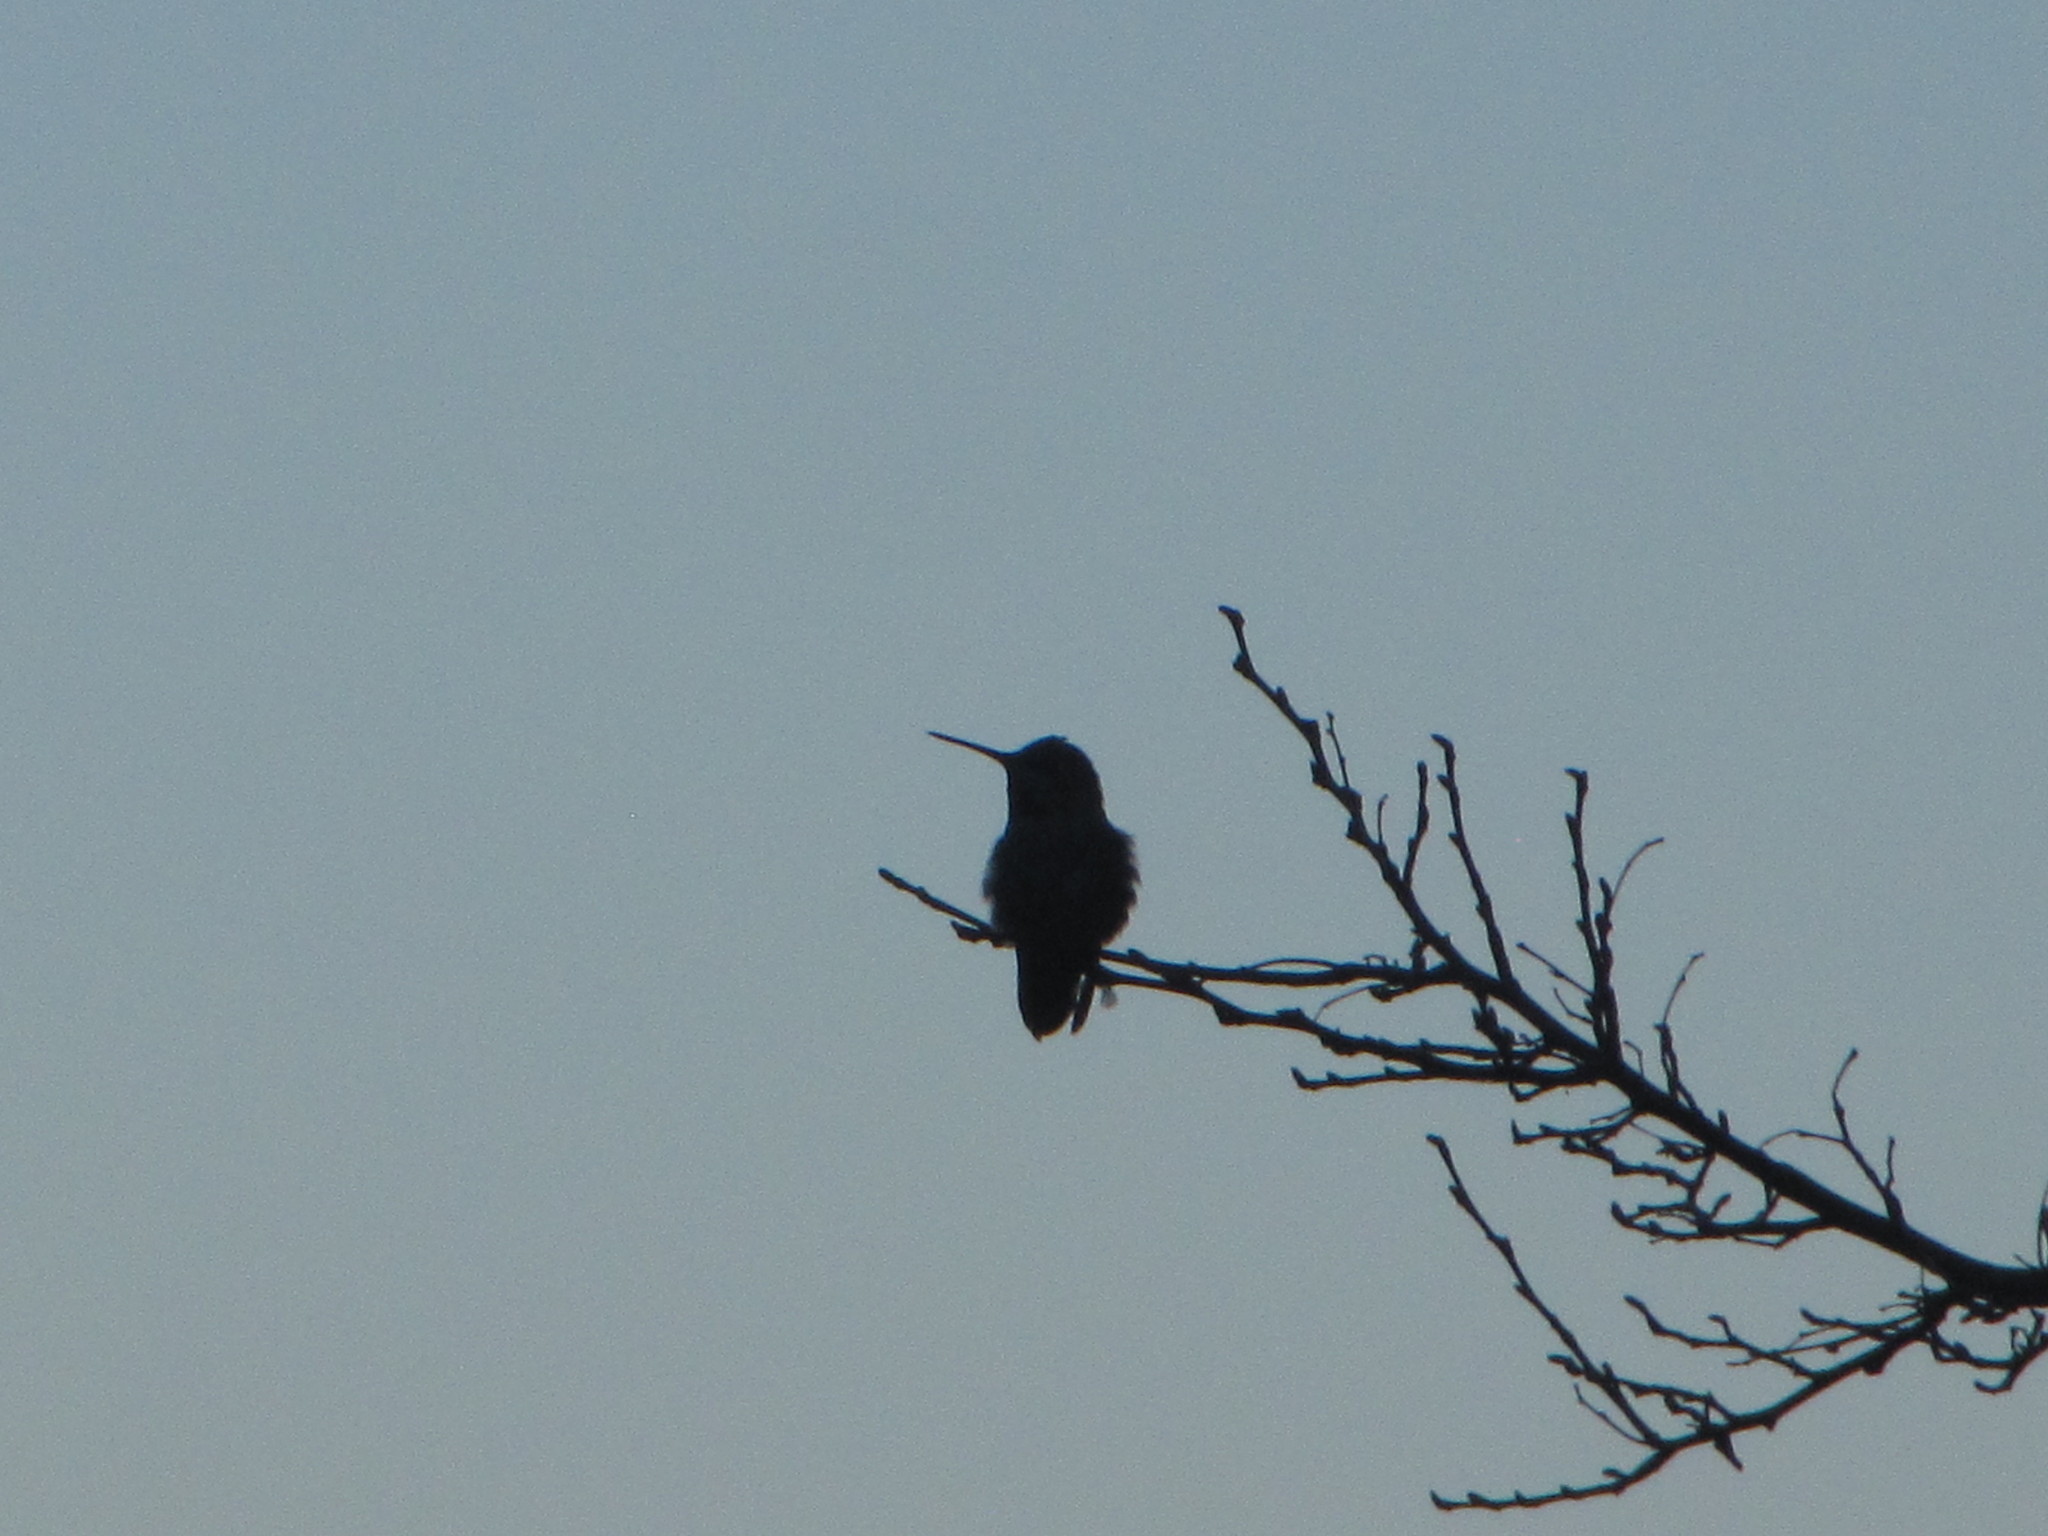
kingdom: Animalia
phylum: Chordata
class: Aves
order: Apodiformes
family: Trochilidae
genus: Calypte
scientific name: Calypte anna
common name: Anna's hummingbird
